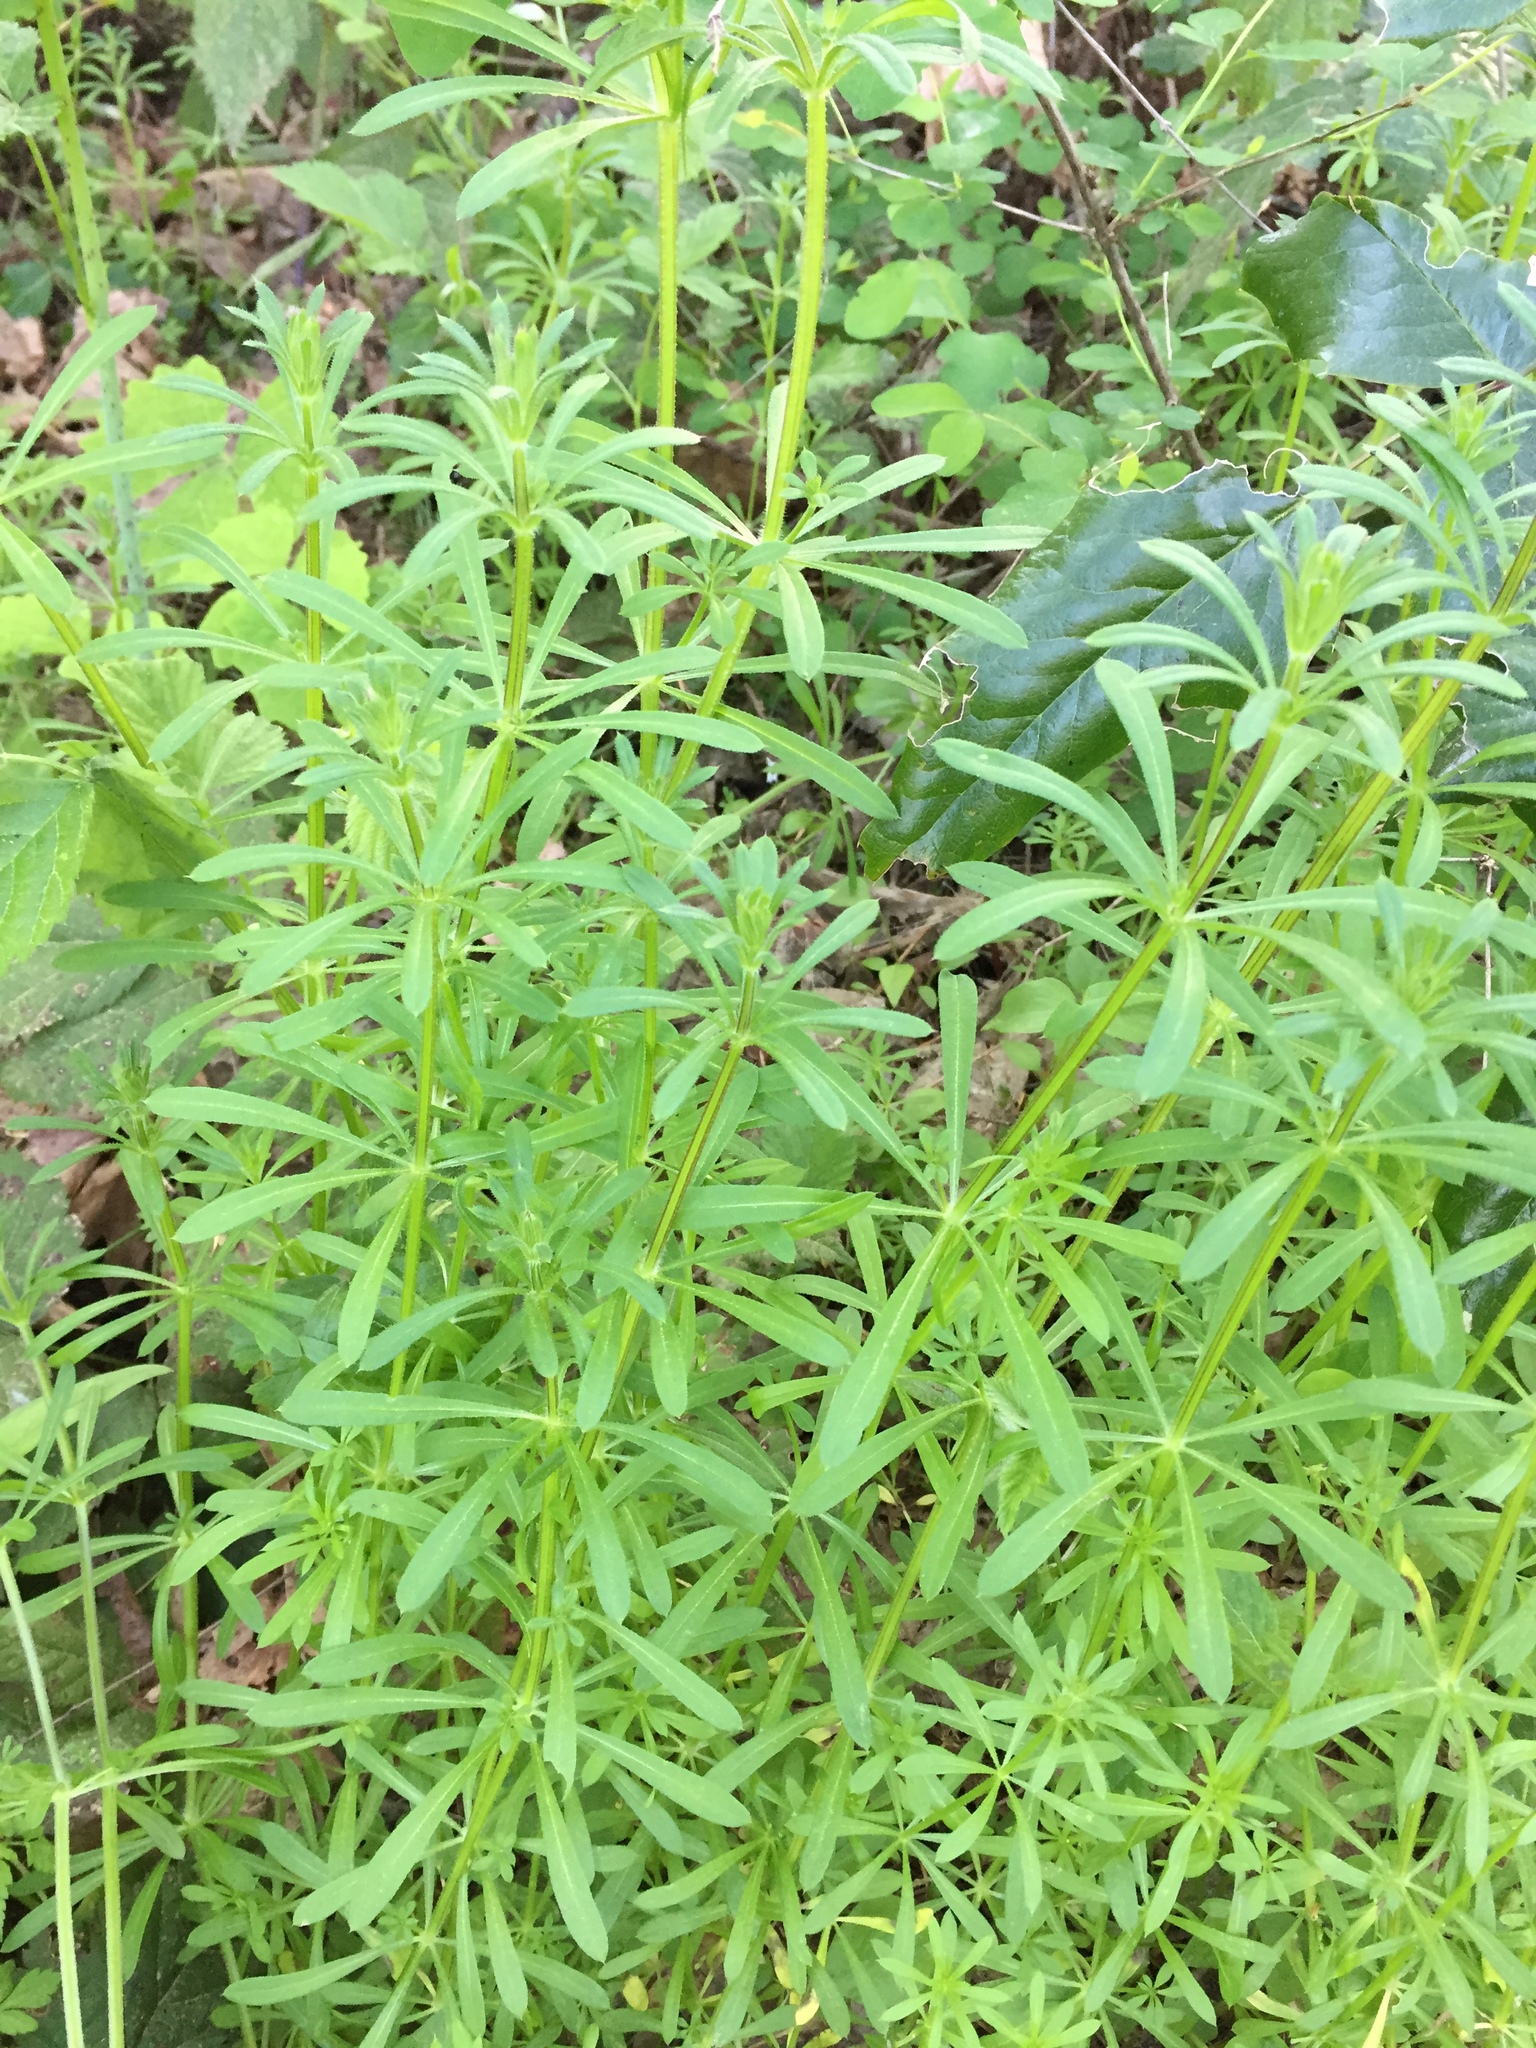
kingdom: Plantae
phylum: Tracheophyta
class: Magnoliopsida
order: Gentianales
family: Rubiaceae
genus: Galium
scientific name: Galium aparine
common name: Cleavers
